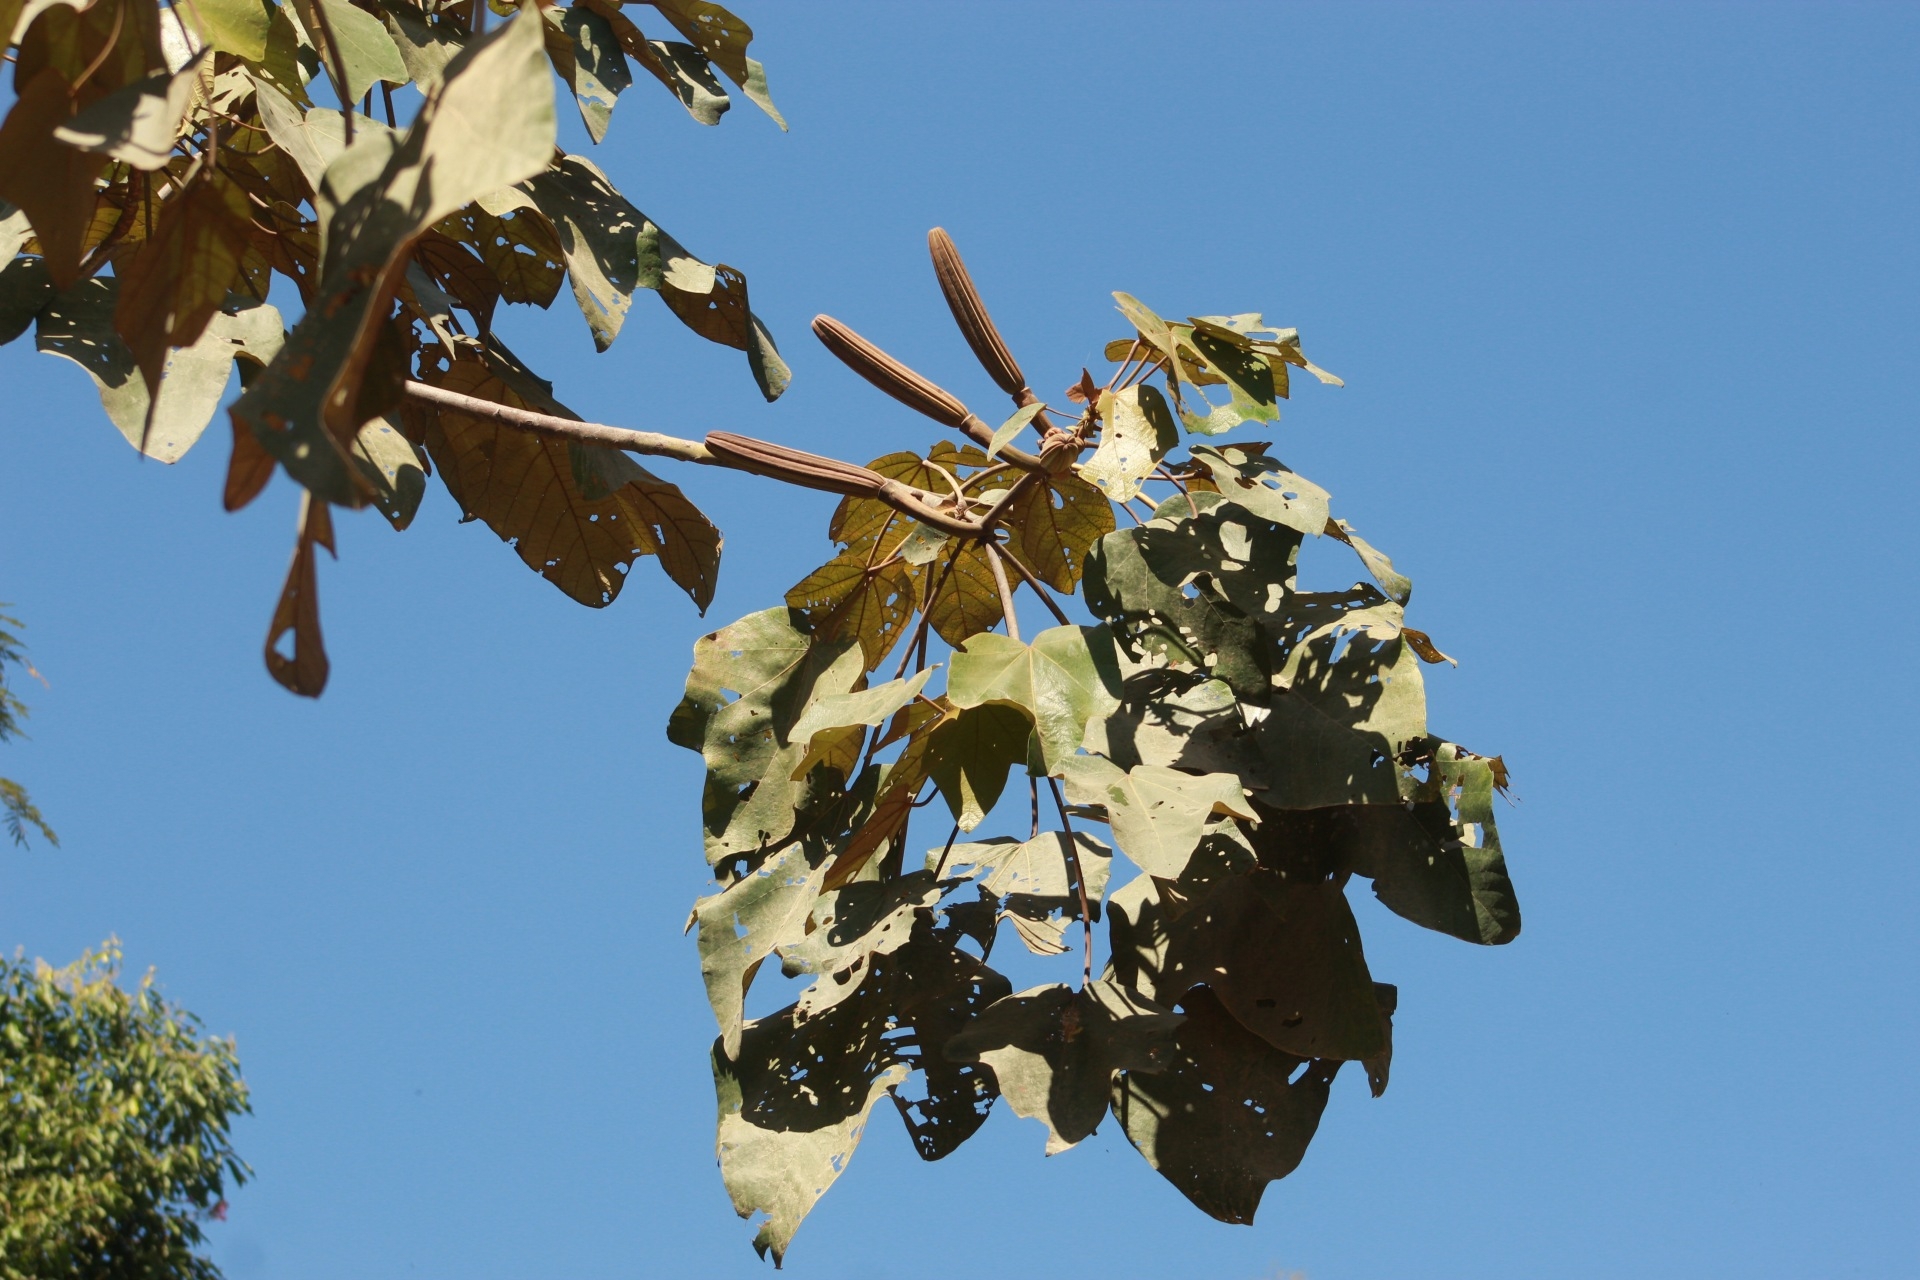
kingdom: Plantae
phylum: Tracheophyta
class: Magnoliopsida
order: Malvales
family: Malvaceae
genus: Ochroma
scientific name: Ochroma pyramidale
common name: Balsa
